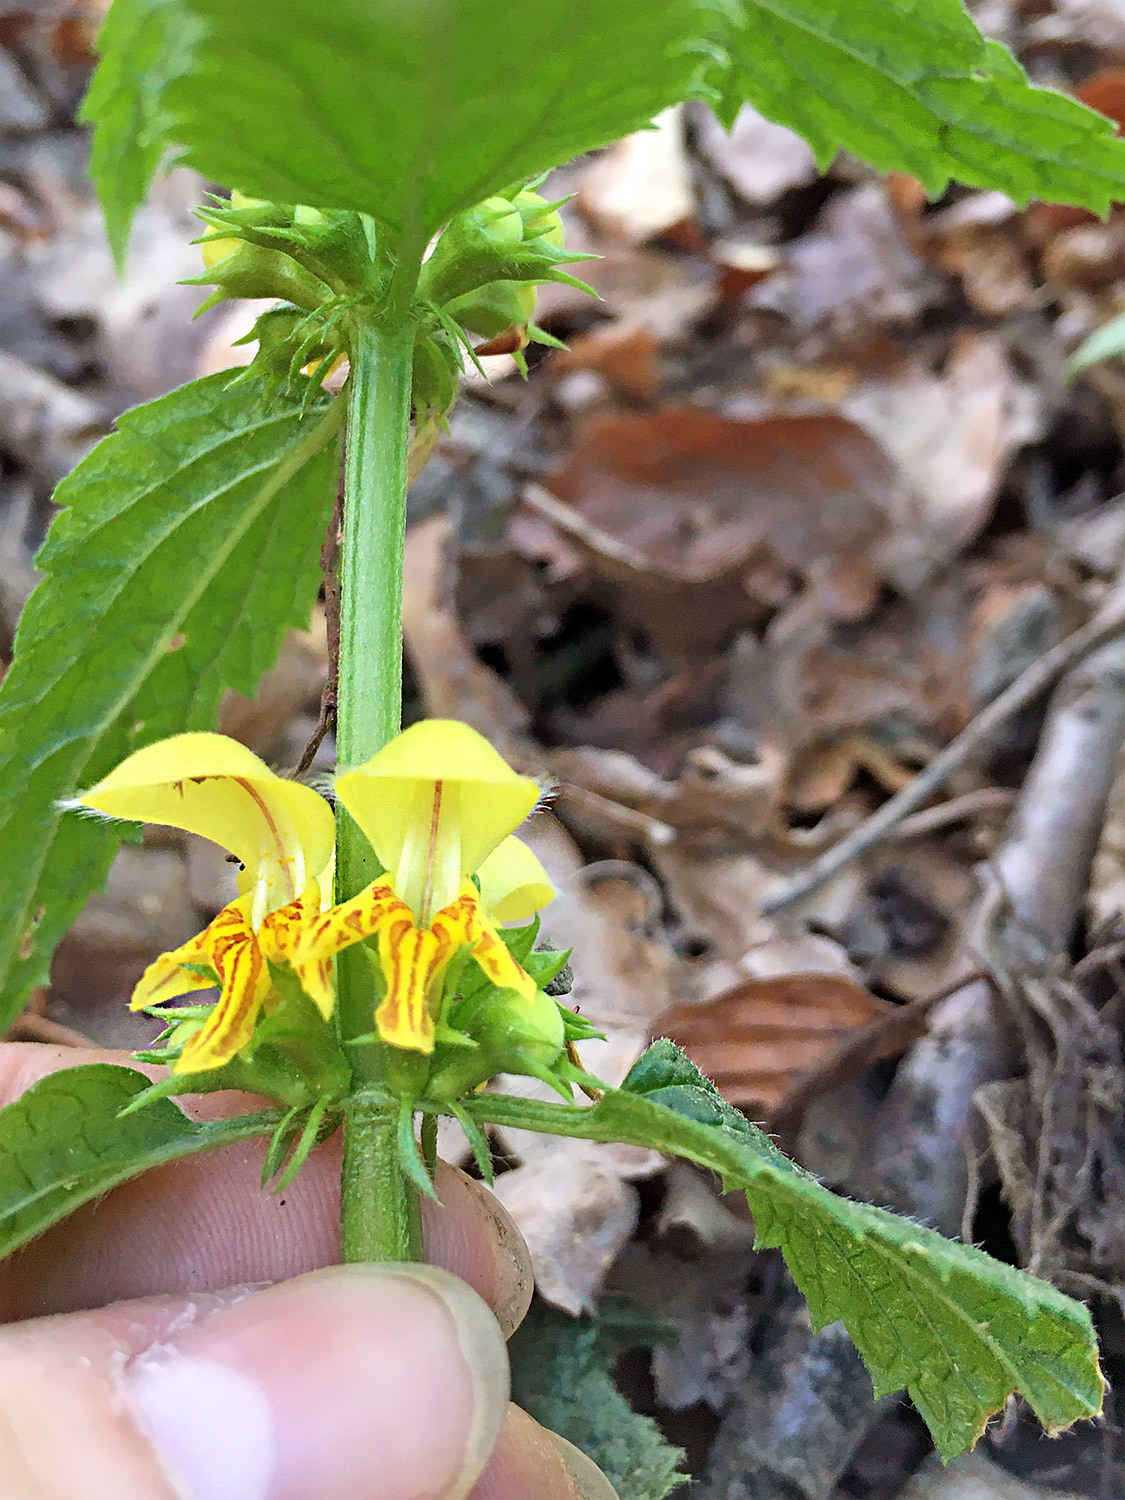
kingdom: Plantae
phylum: Tracheophyta
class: Magnoliopsida
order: Lamiales
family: Lamiaceae
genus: Lamium
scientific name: Lamium galeobdolon
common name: Yellow archangel
